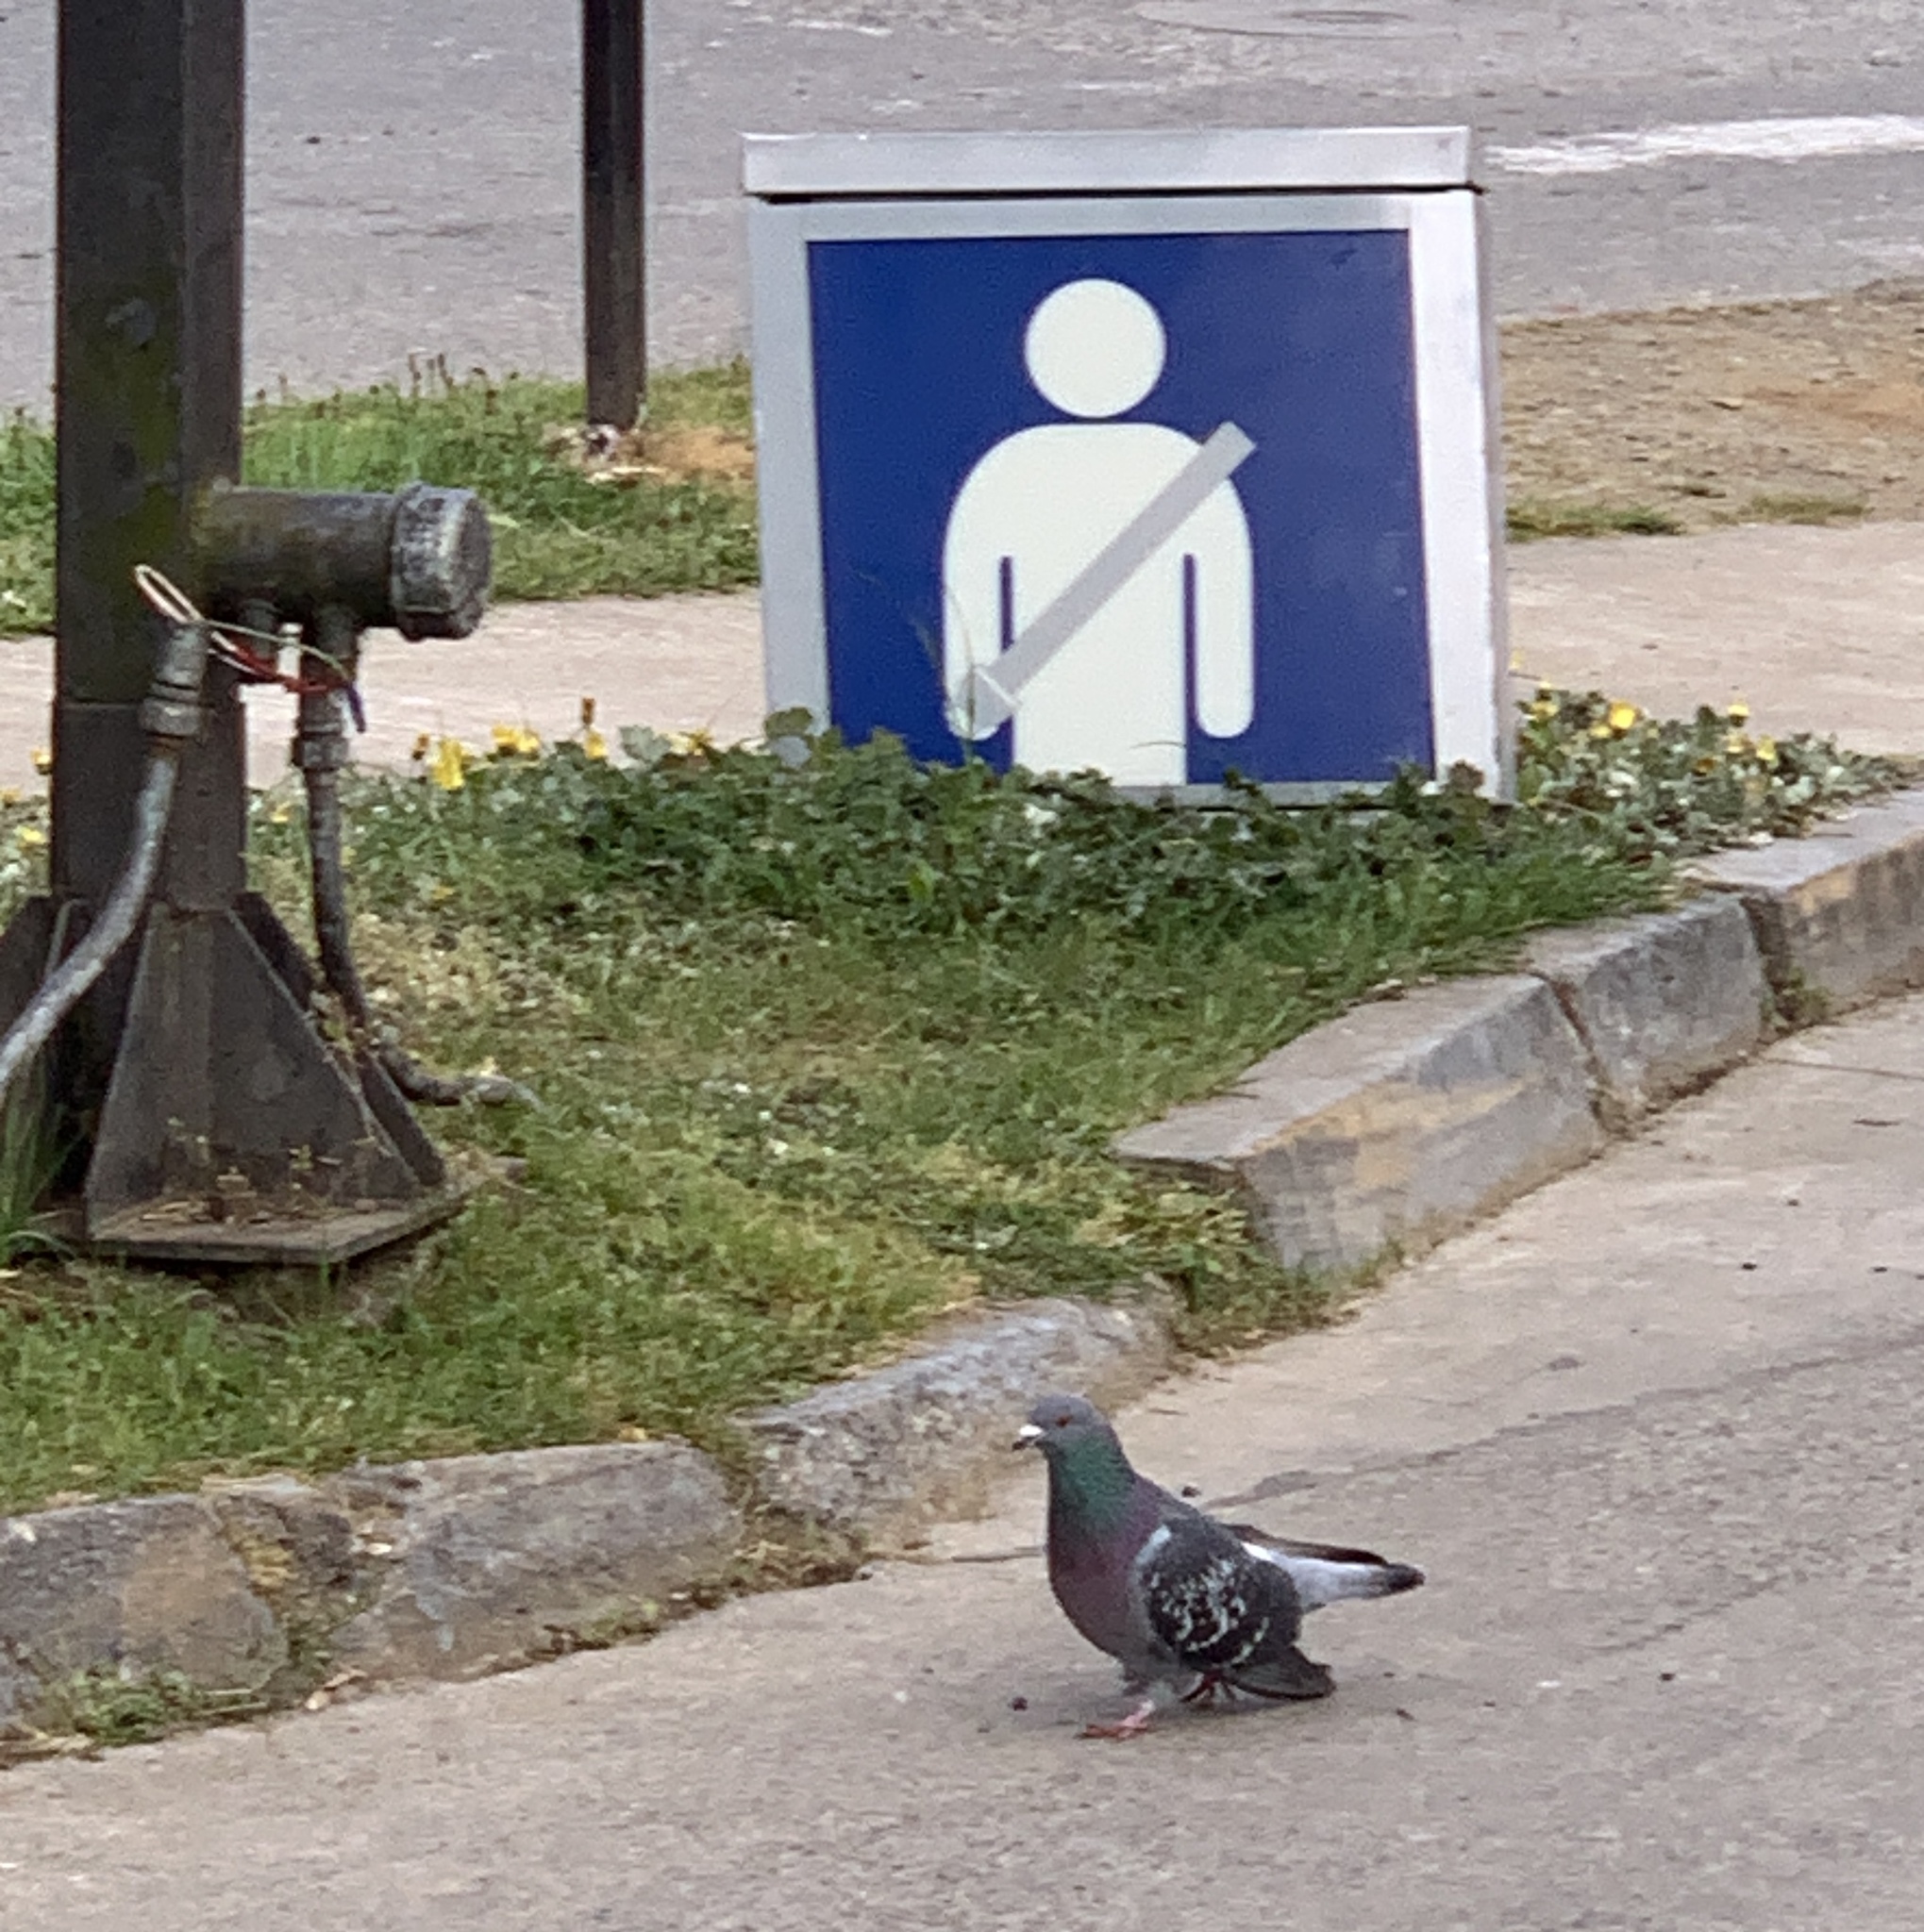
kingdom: Animalia
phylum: Chordata
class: Aves
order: Columbiformes
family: Columbidae
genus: Columba
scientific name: Columba livia
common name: Rock pigeon
